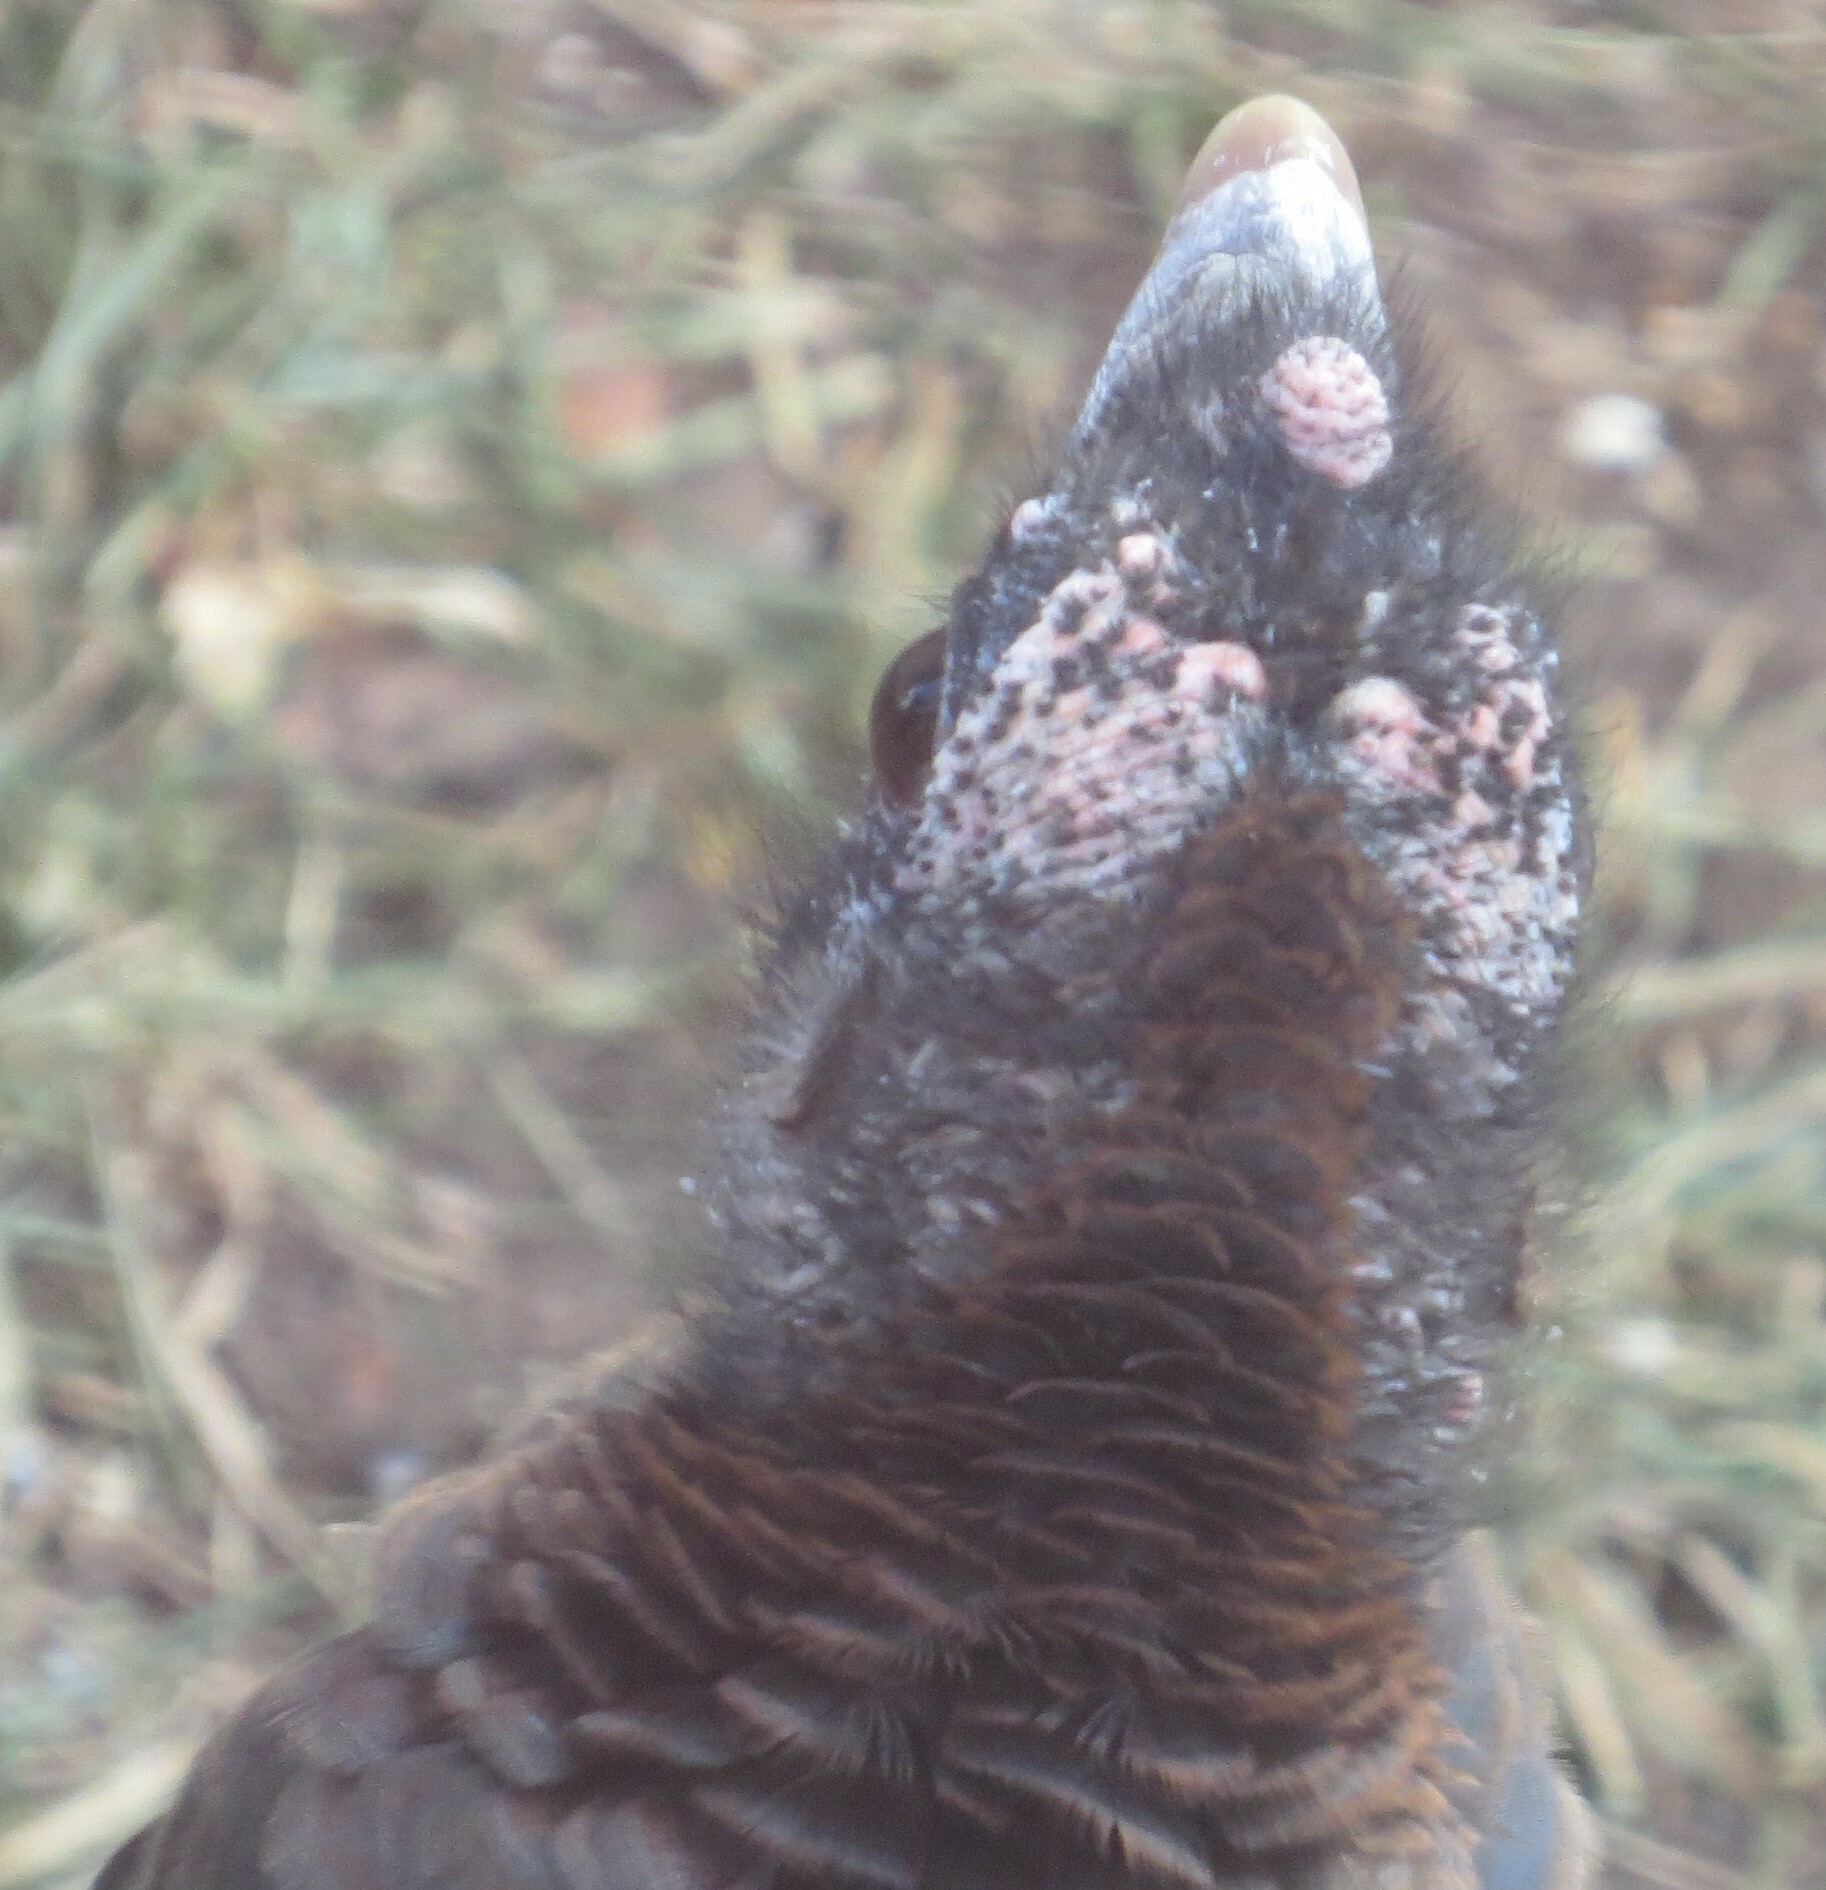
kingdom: Animalia
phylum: Chordata
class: Aves
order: Galliformes
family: Phasianidae
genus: Meleagris
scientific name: Meleagris gallopavo
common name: Wild turkey
